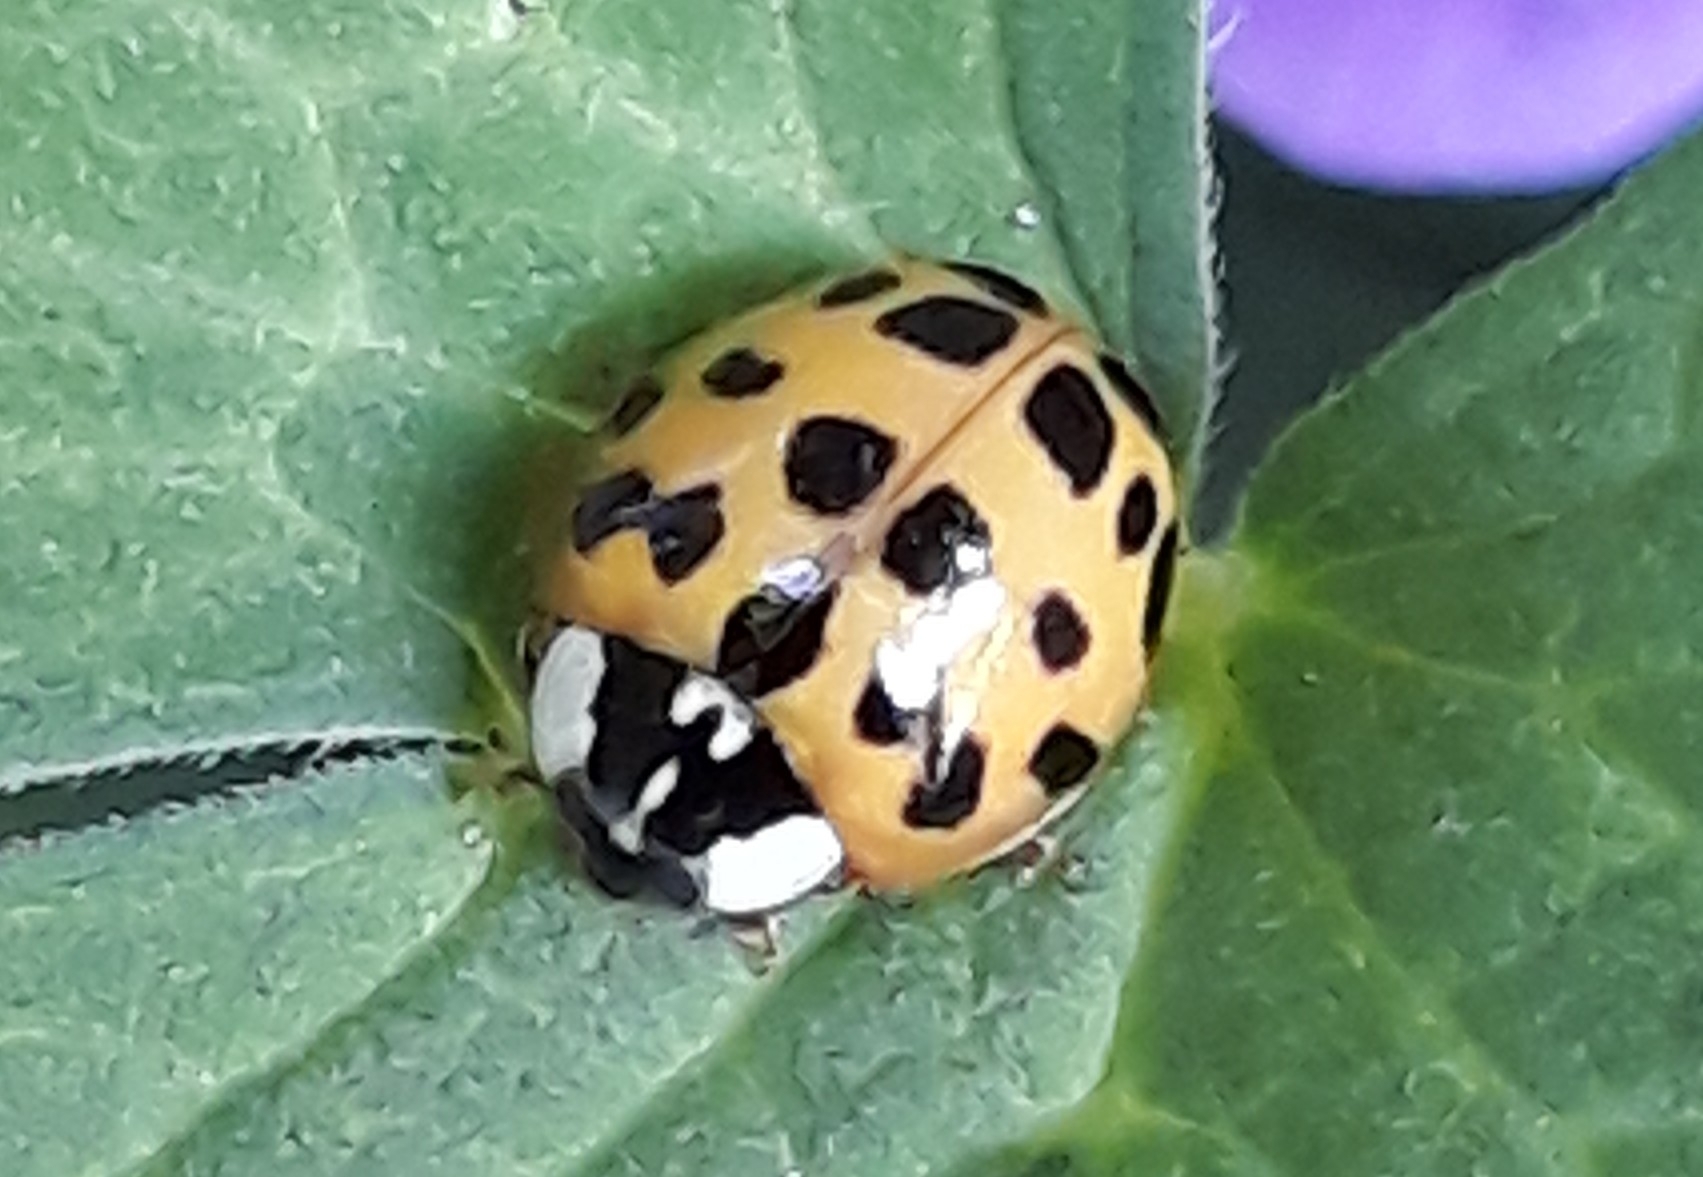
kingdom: Animalia
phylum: Arthropoda
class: Insecta
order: Coleoptera
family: Coccinellidae
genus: Harmonia
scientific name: Harmonia axyridis
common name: Harlequin ladybird
